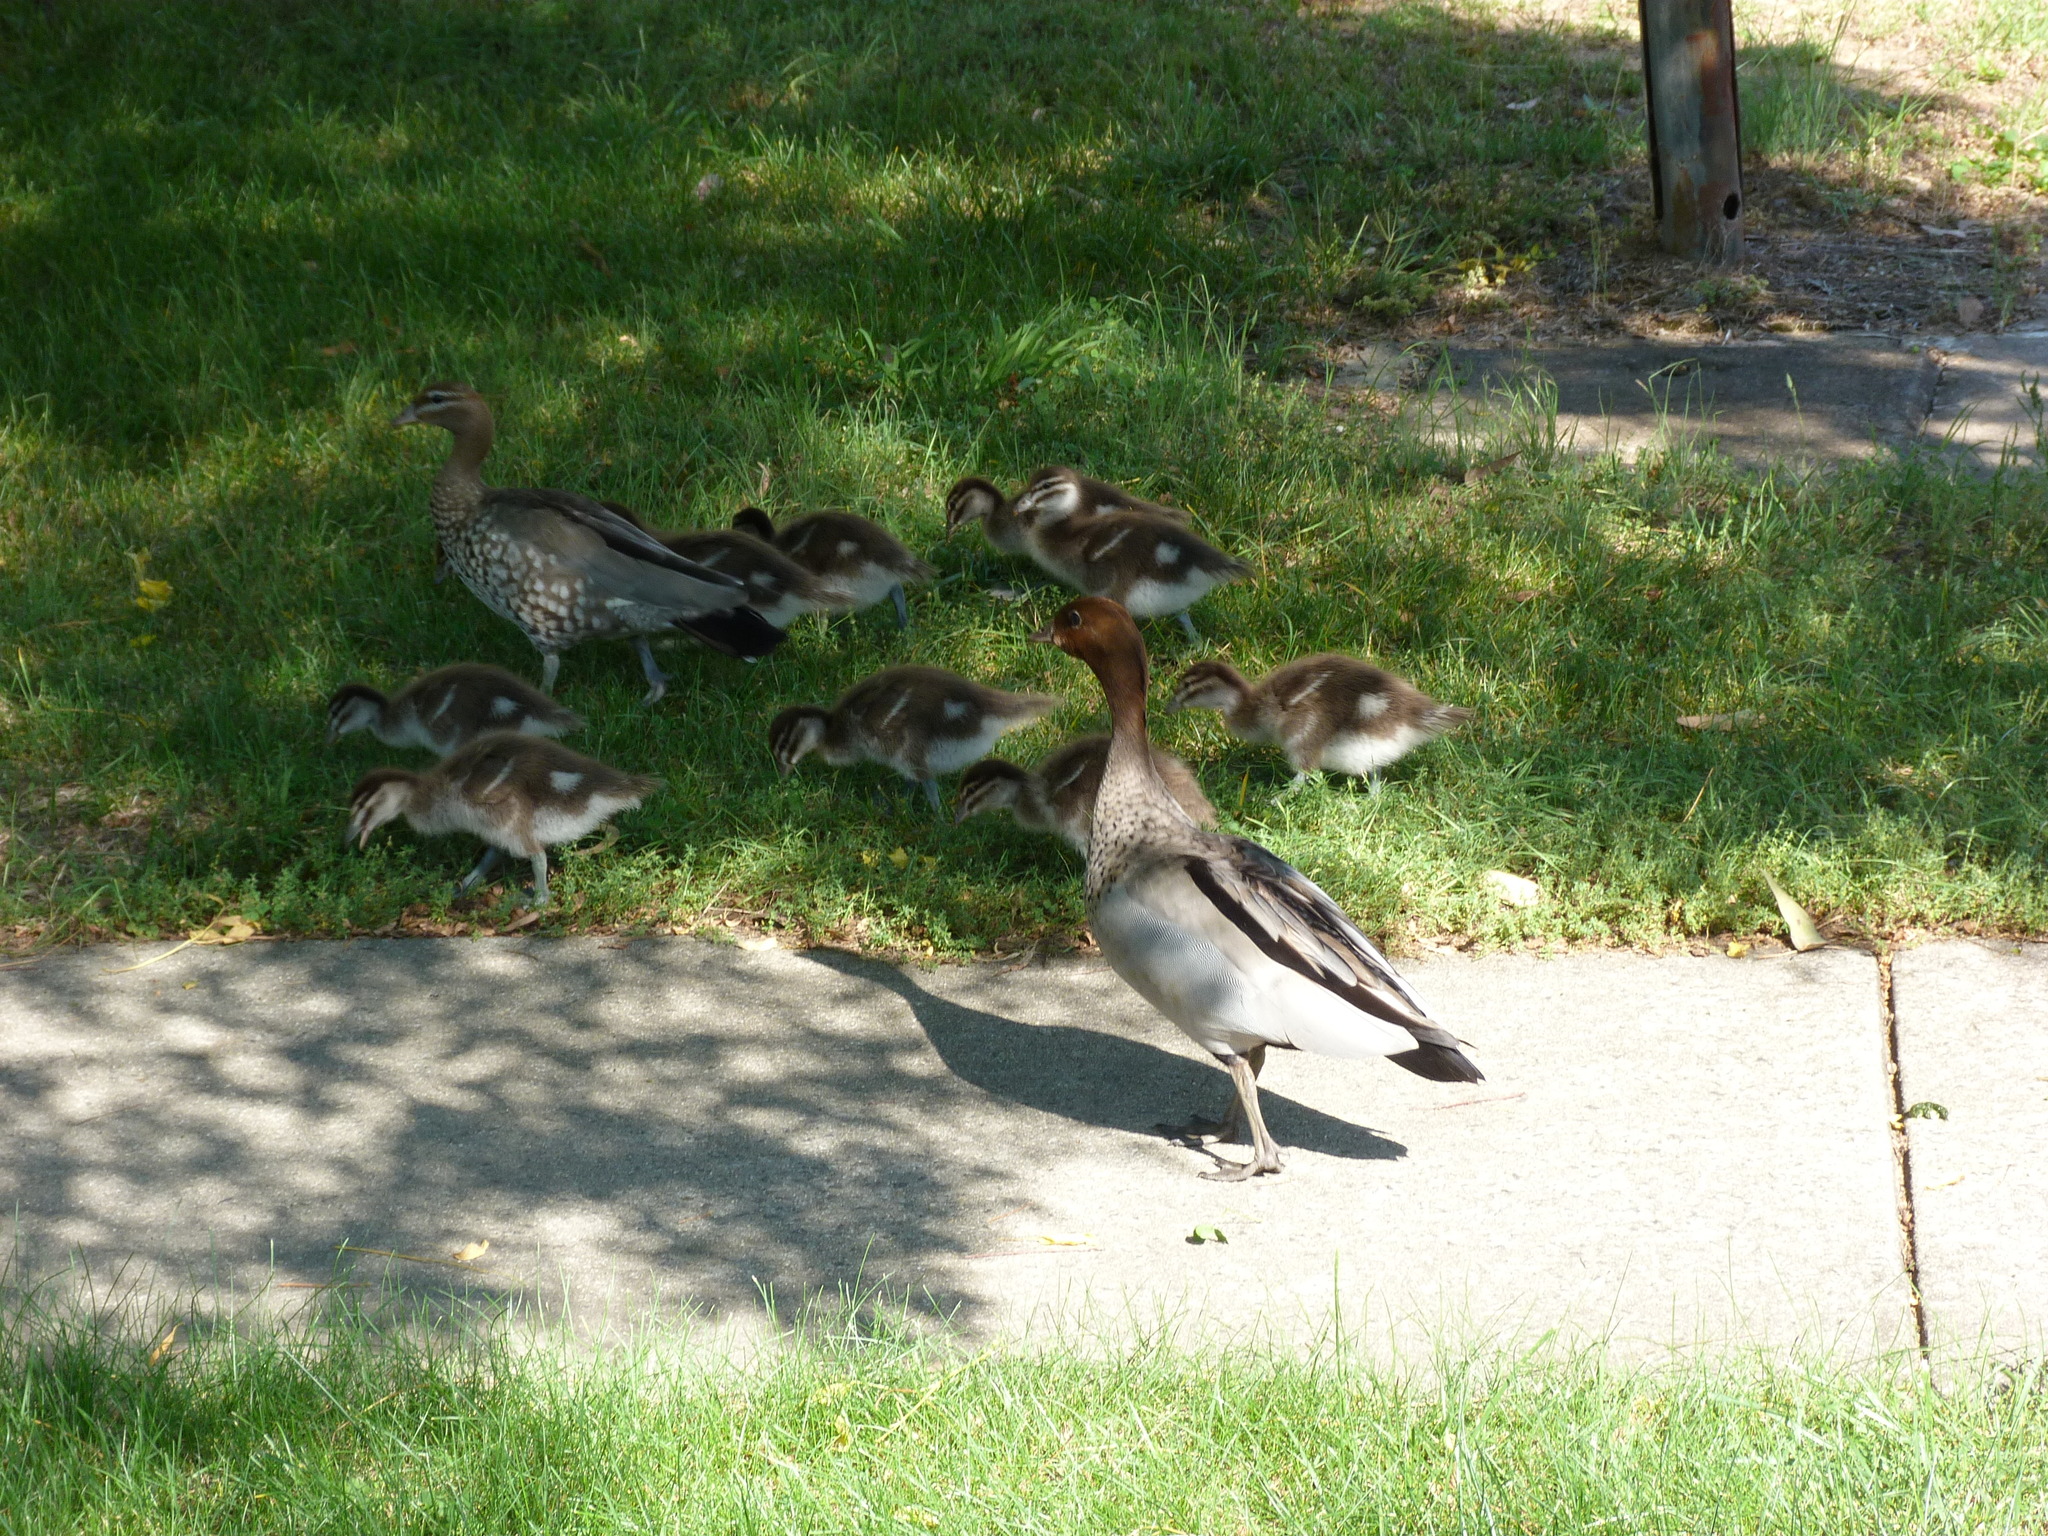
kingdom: Animalia
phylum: Chordata
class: Aves
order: Anseriformes
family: Anatidae
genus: Chenonetta
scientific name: Chenonetta jubata
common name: Maned duck
